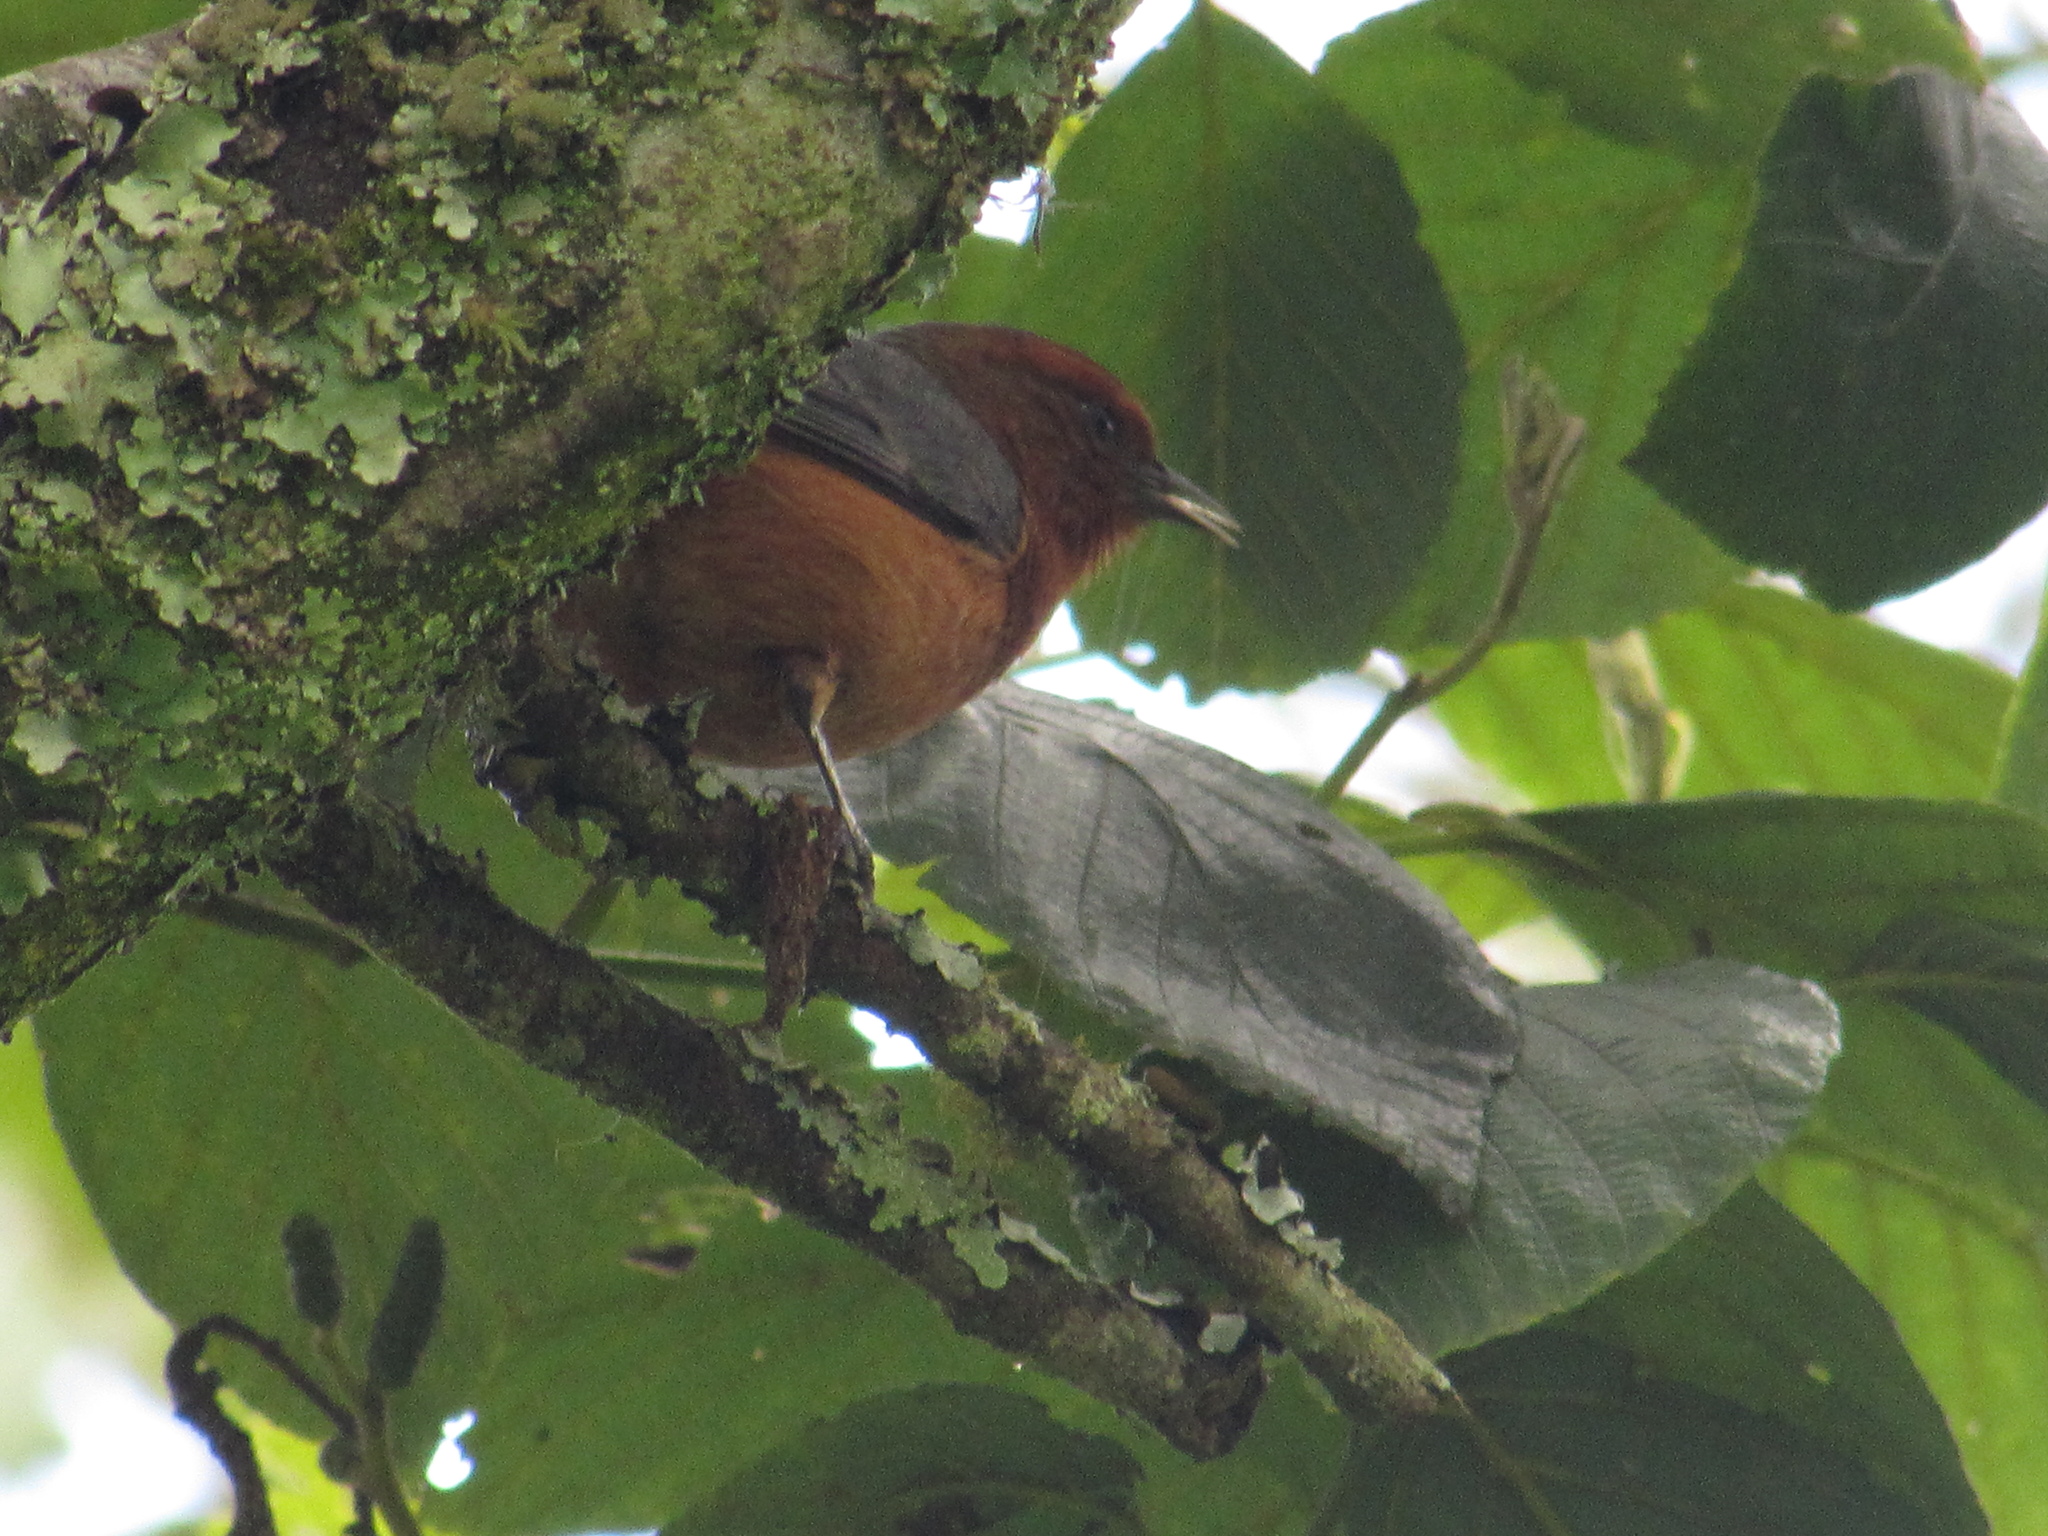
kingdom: Animalia
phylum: Chordata
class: Aves
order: Passeriformes
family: Thraupidae
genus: Conirostrum
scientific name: Conirostrum rufum
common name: Rufous-browed conebill
